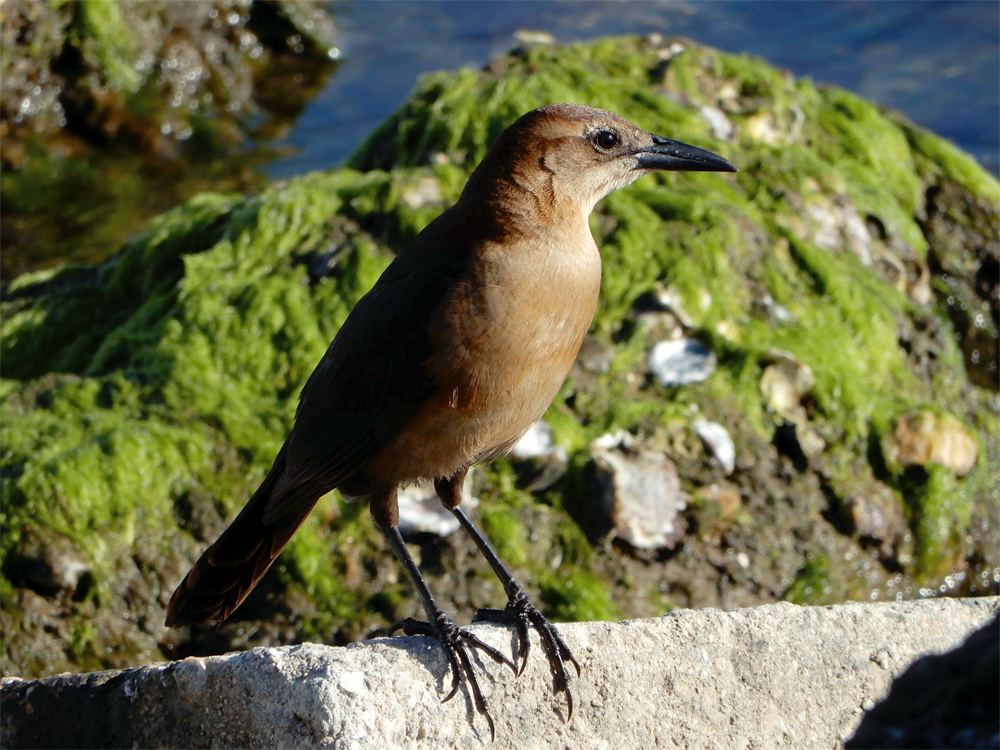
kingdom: Animalia
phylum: Chordata
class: Aves
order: Passeriformes
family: Icteridae
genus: Quiscalus
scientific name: Quiscalus major
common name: Boat-tailed grackle
